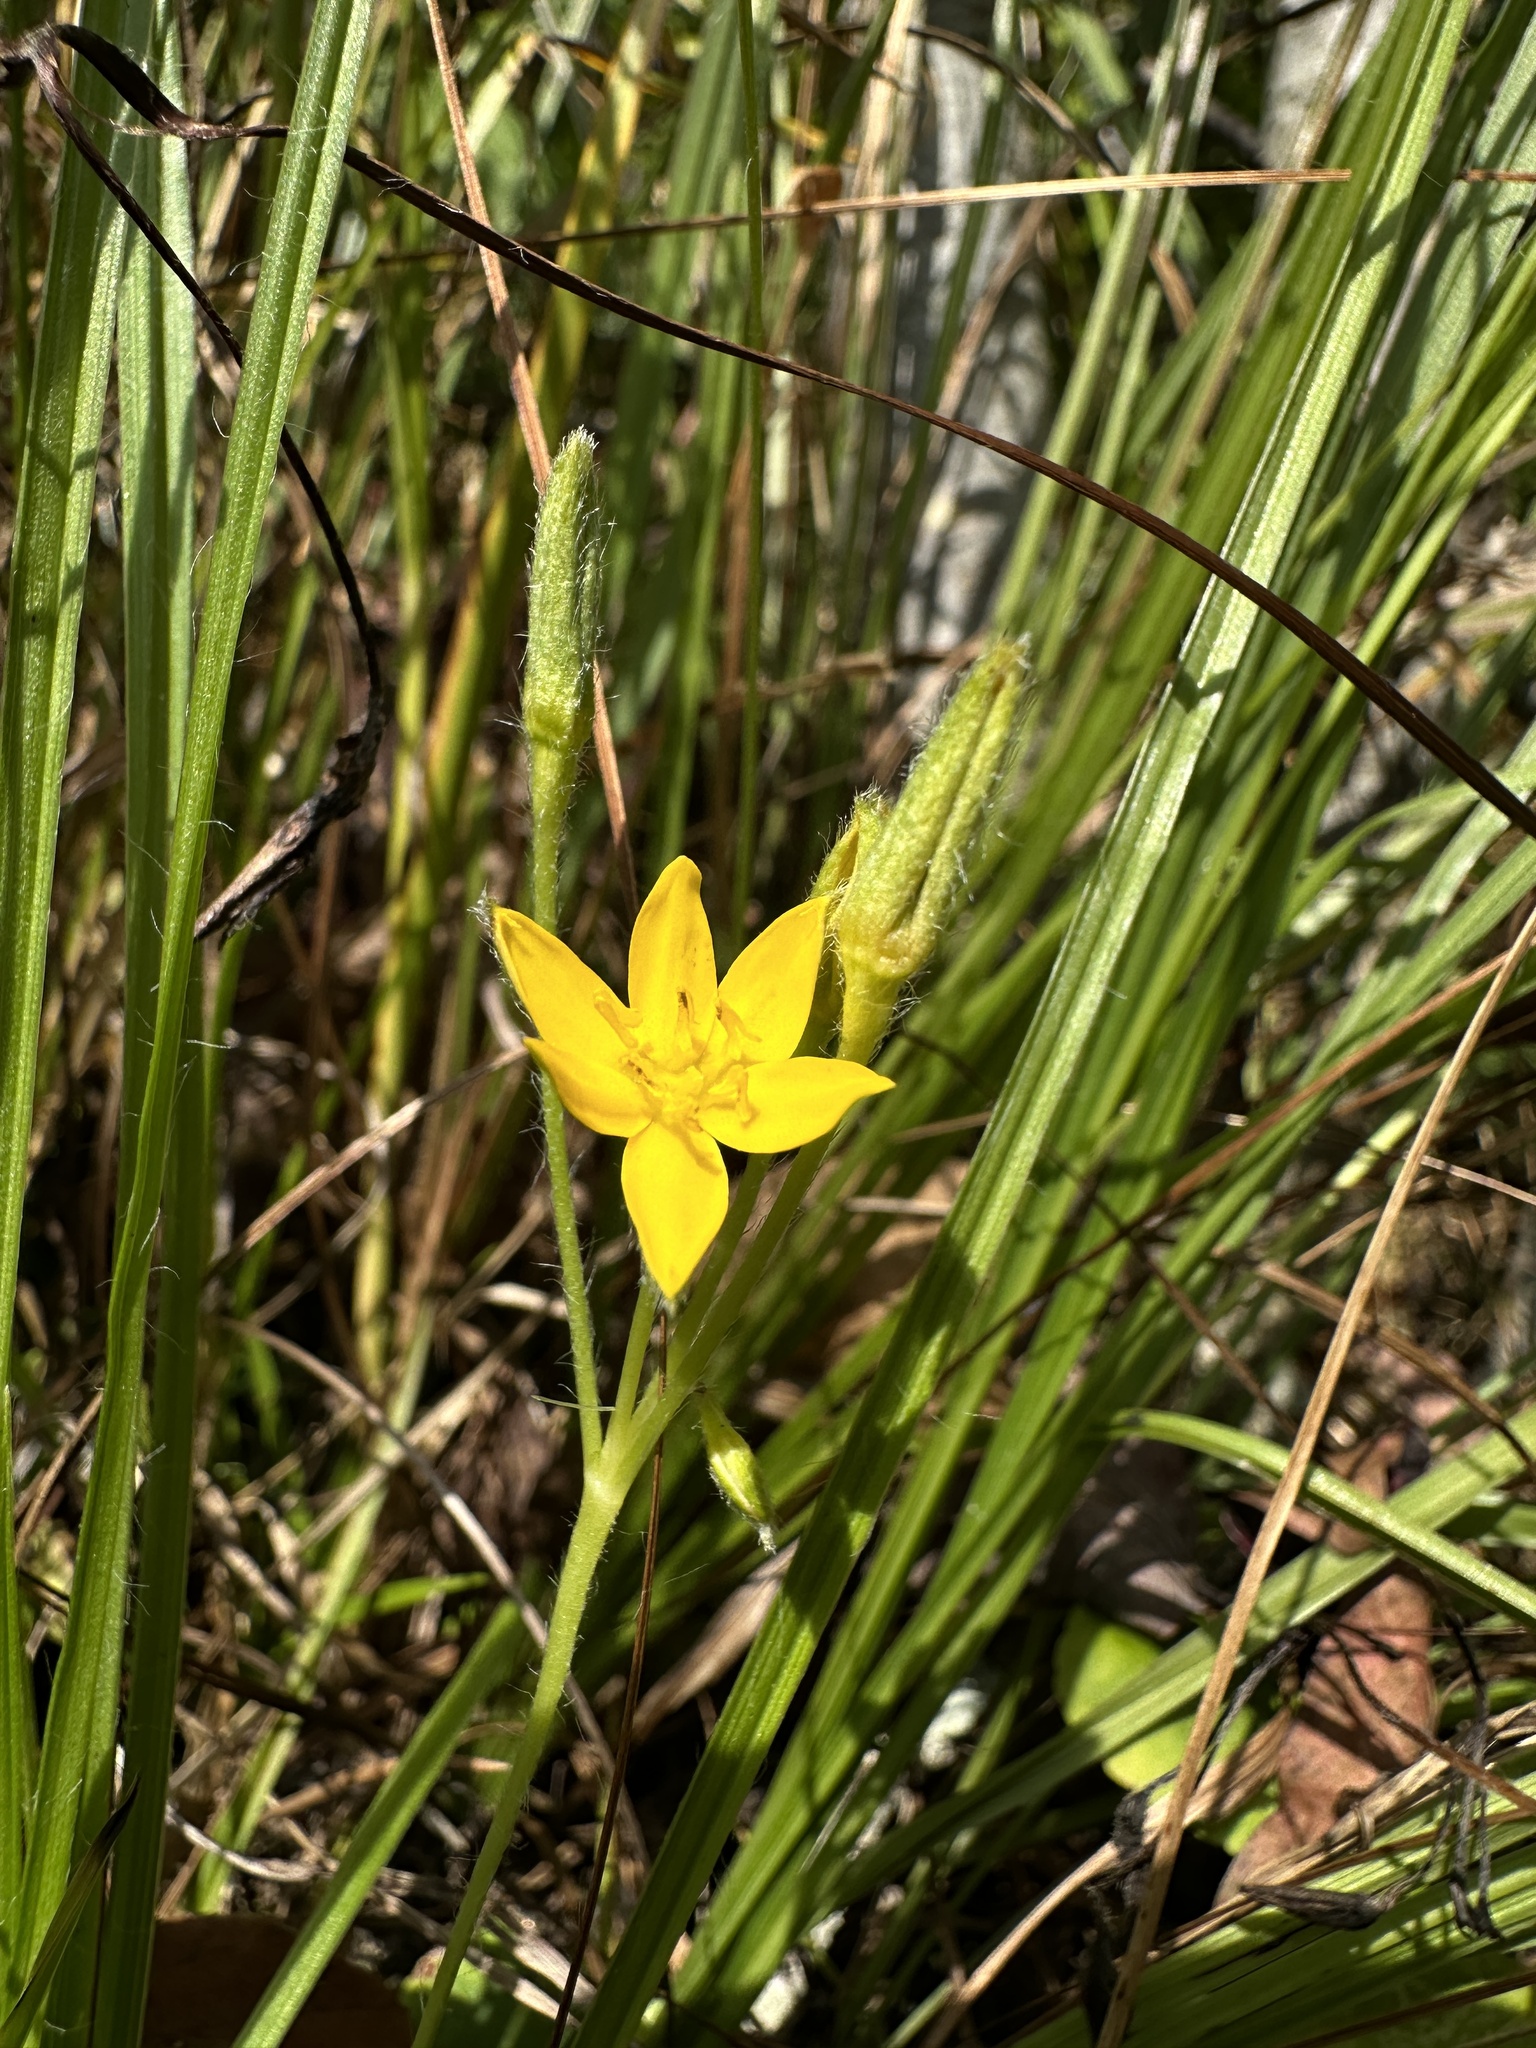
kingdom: Plantae
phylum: Tracheophyta
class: Liliopsida
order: Asparagales
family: Hypoxidaceae
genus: Hypoxis
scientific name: Hypoxis hirsuta
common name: Common goldstar
